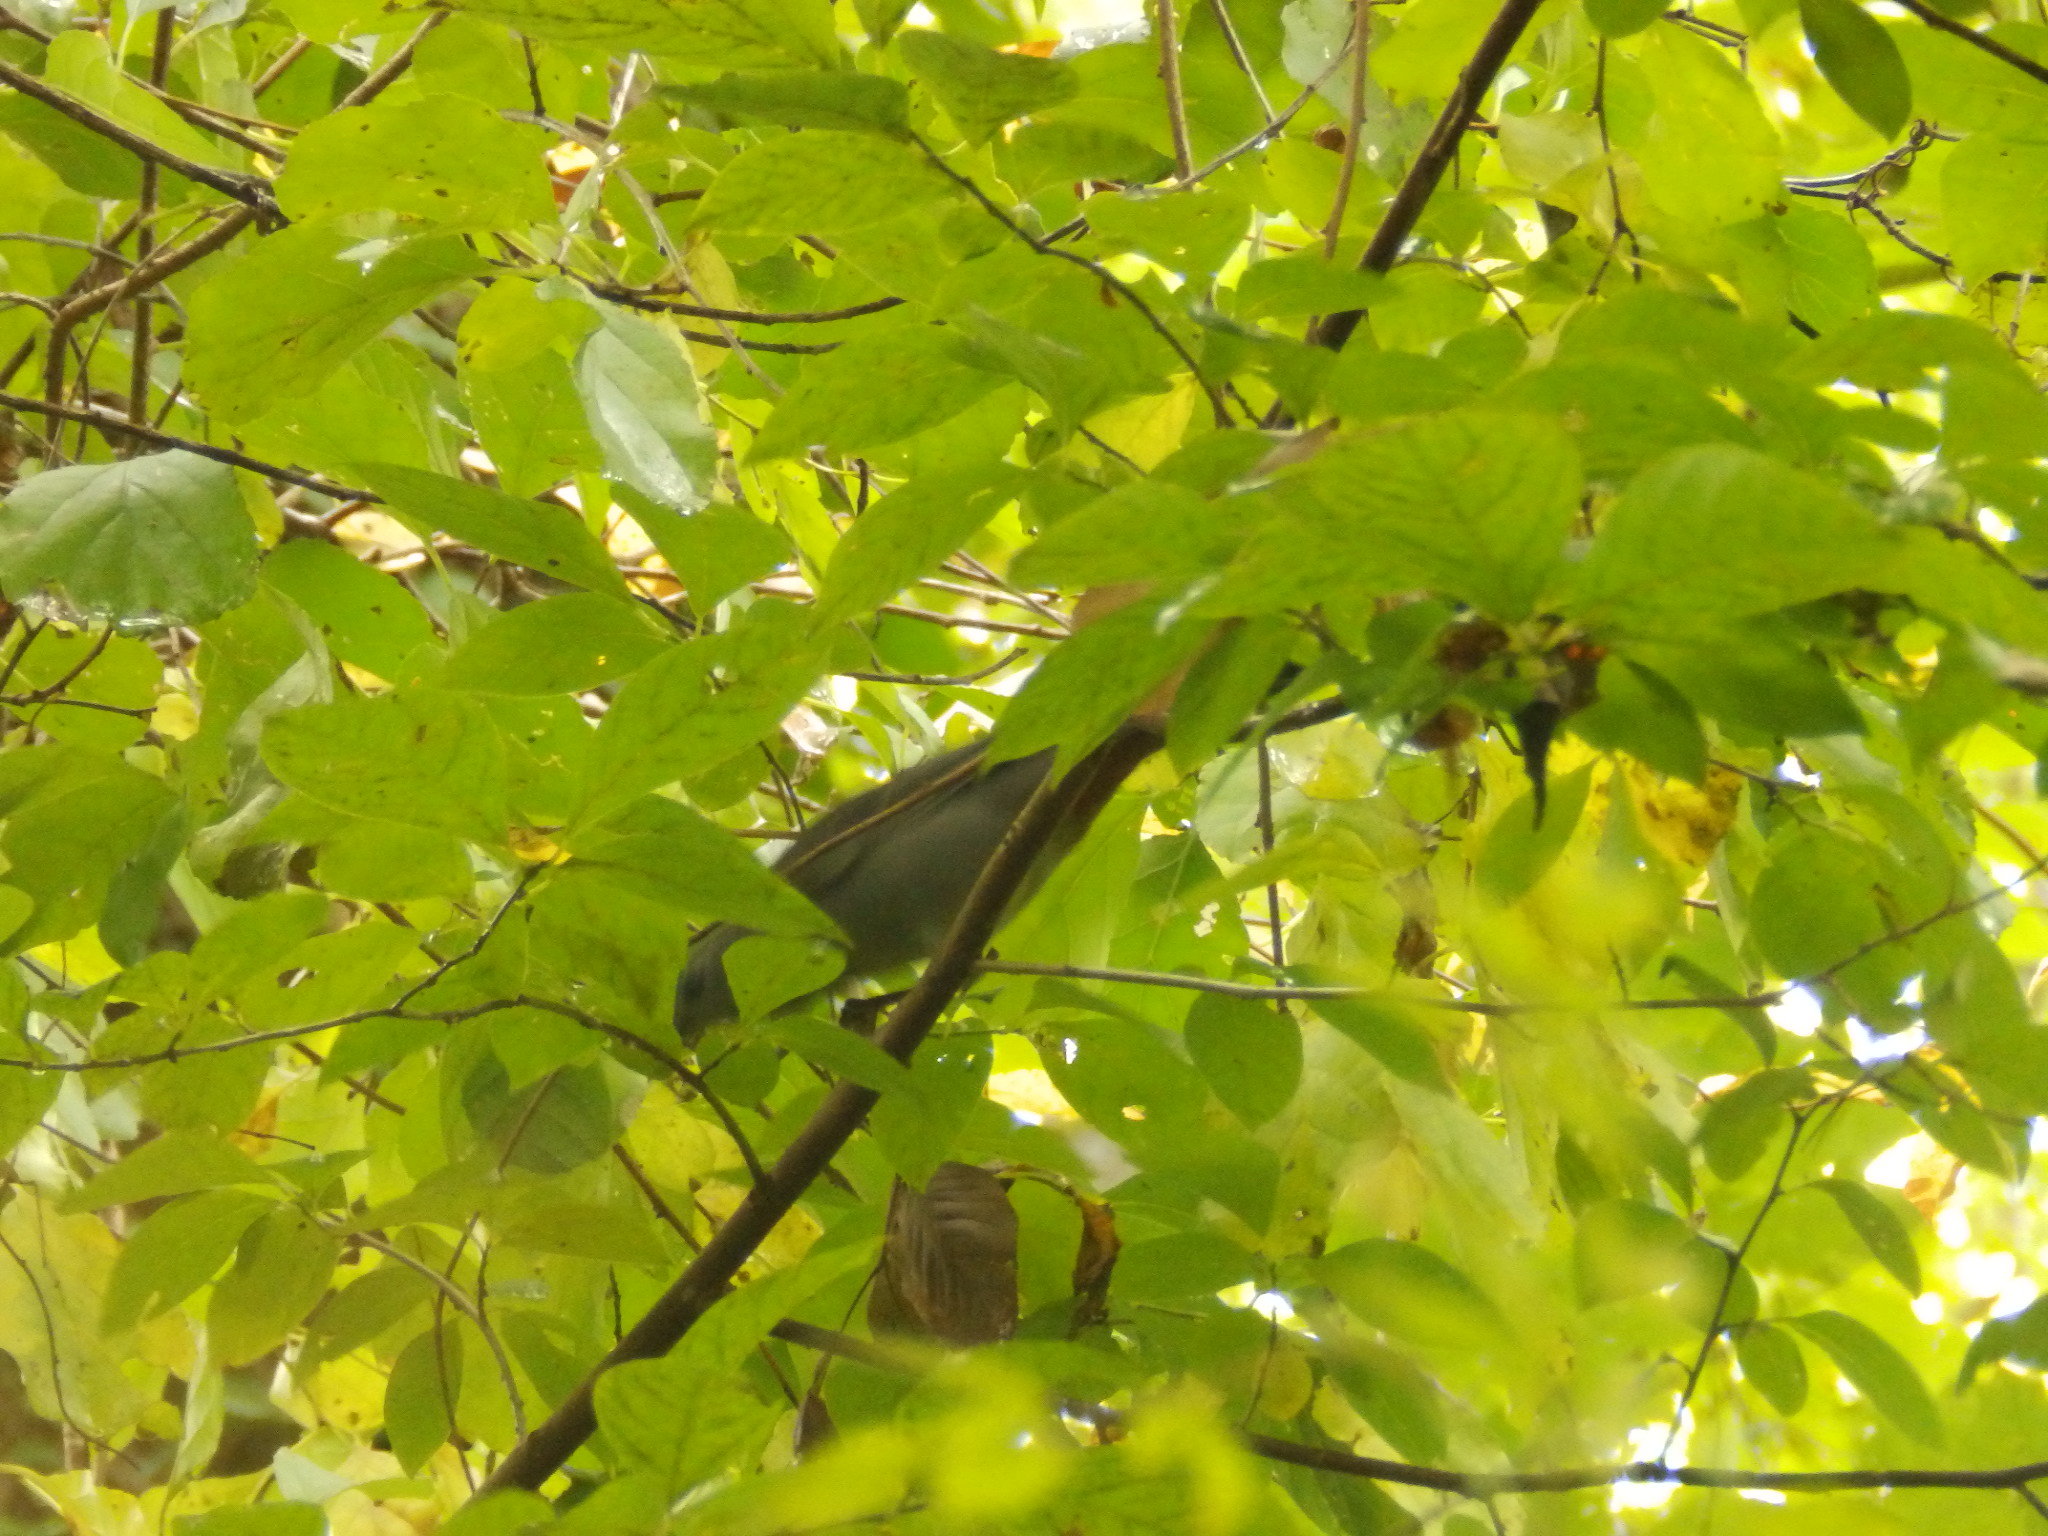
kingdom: Animalia
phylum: Chordata
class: Aves
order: Passeriformes
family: Mimidae
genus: Dumetella
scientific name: Dumetella carolinensis
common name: Gray catbird
